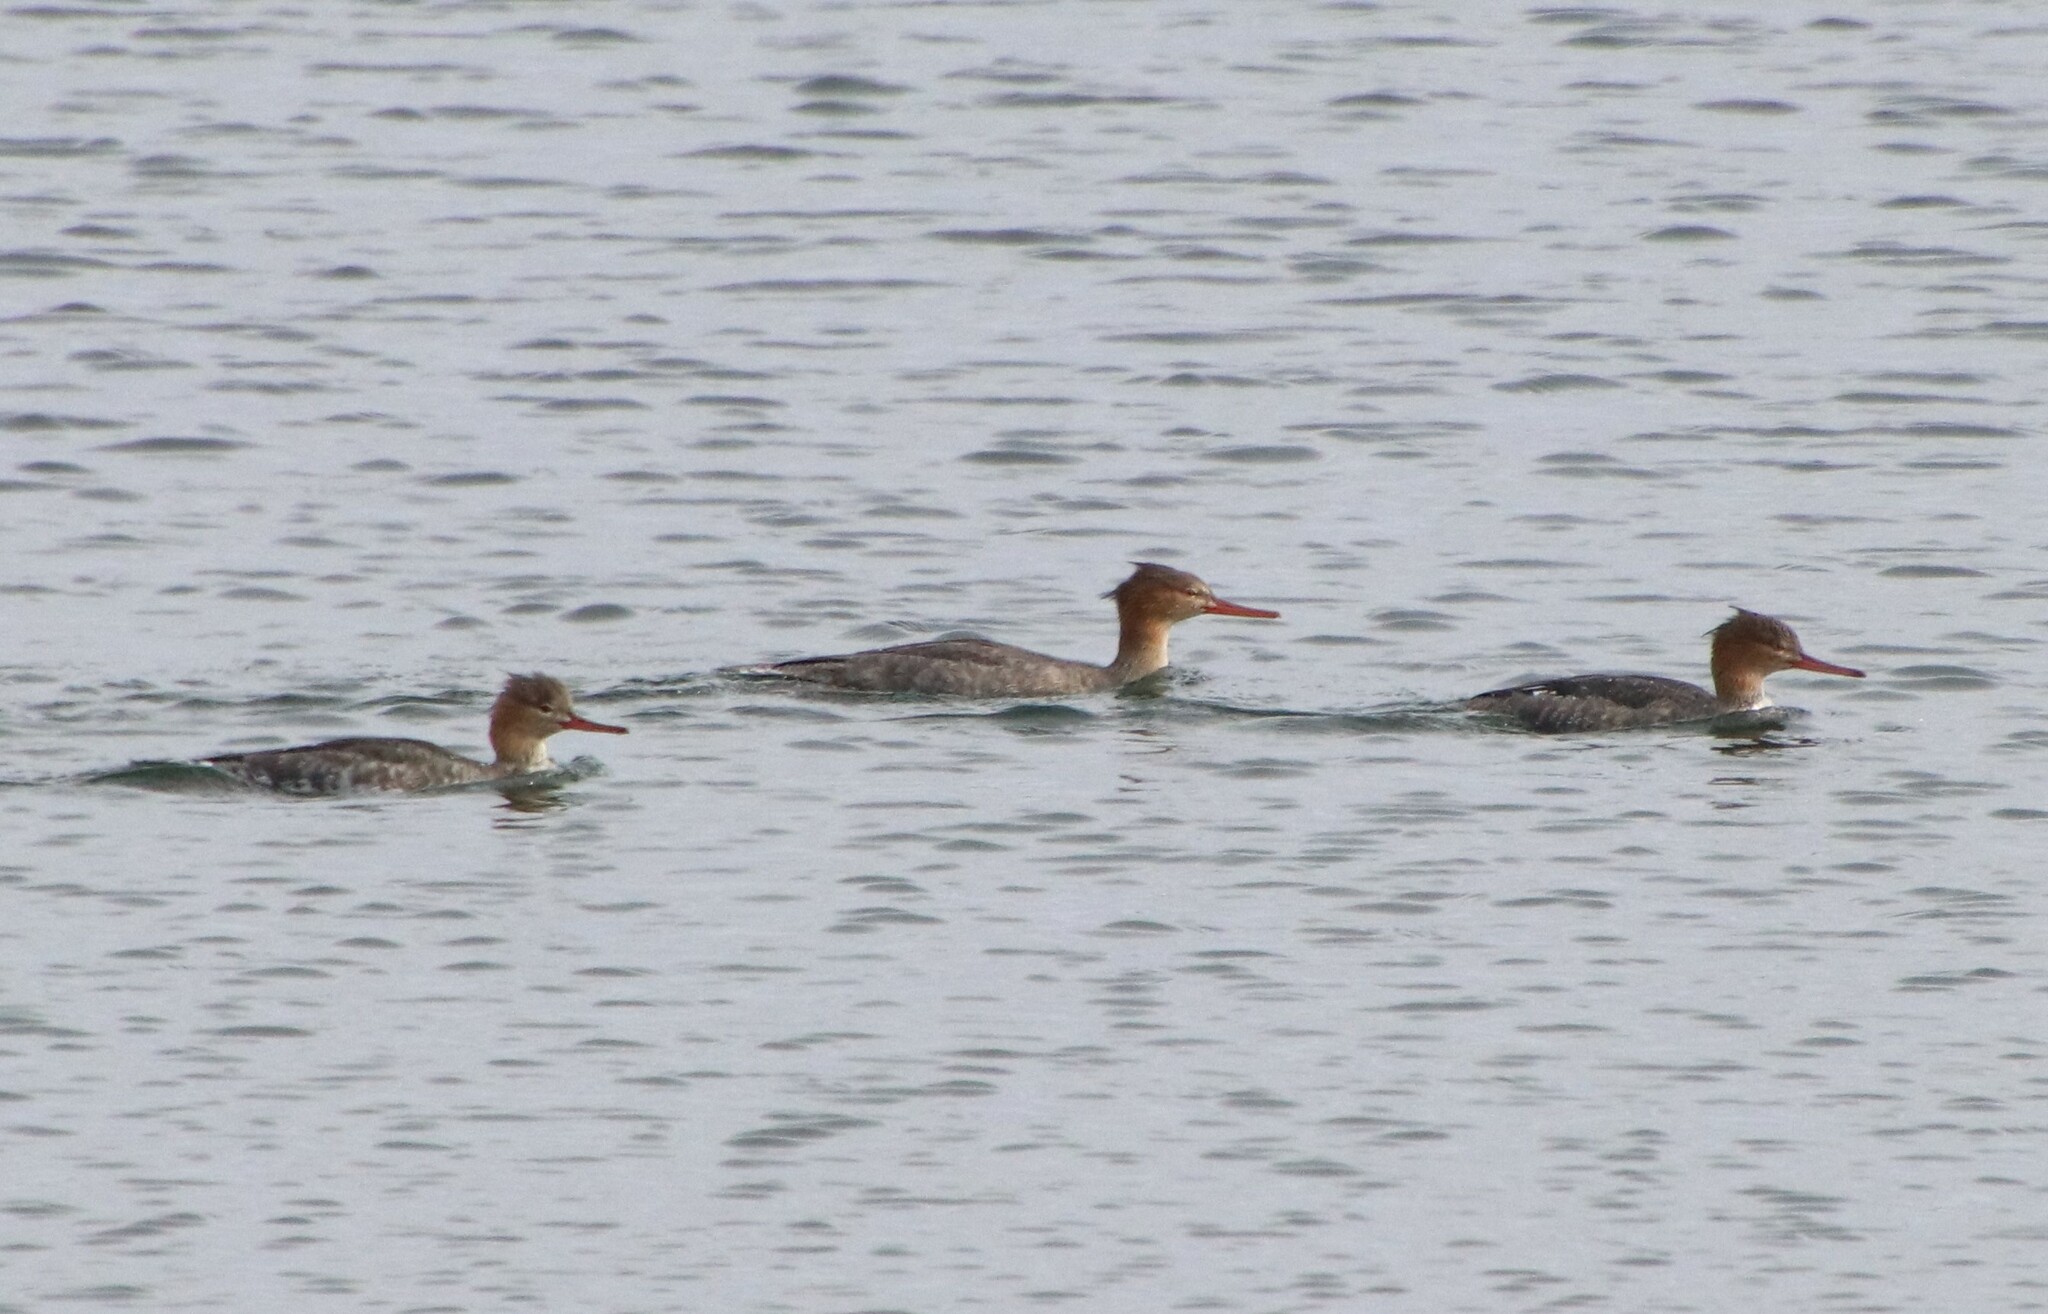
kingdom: Animalia
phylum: Chordata
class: Aves
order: Anseriformes
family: Anatidae
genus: Mergus
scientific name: Mergus serrator
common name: Red-breasted merganser
